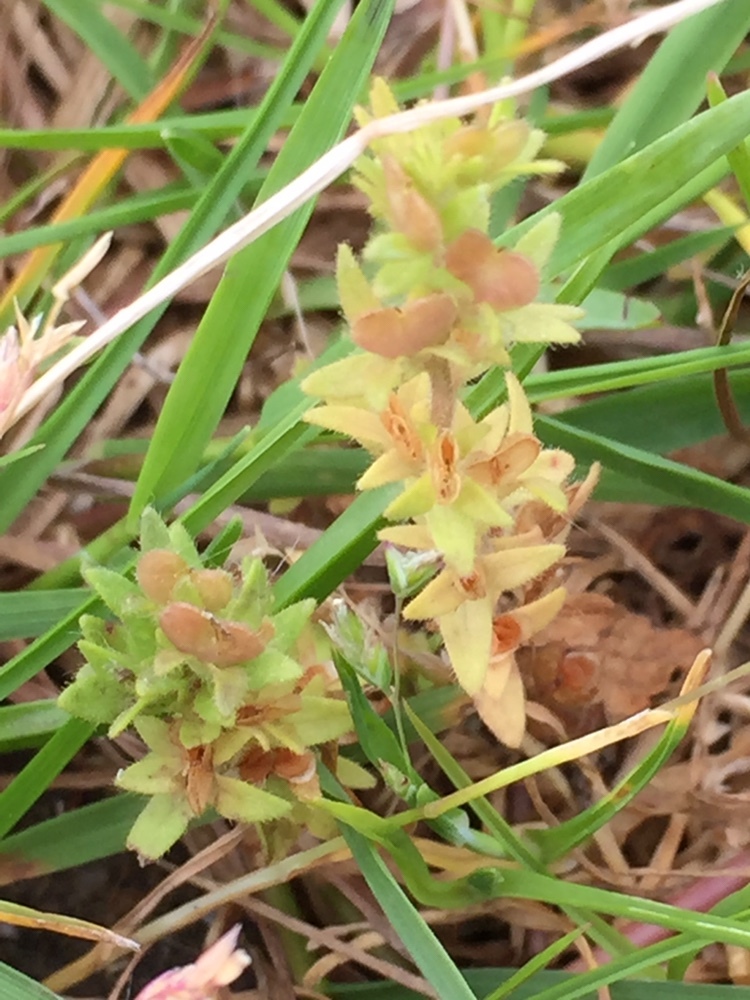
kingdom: Plantae
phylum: Tracheophyta
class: Magnoliopsida
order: Lamiales
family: Plantaginaceae
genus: Veronica
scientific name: Veronica arvensis
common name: Corn speedwell
